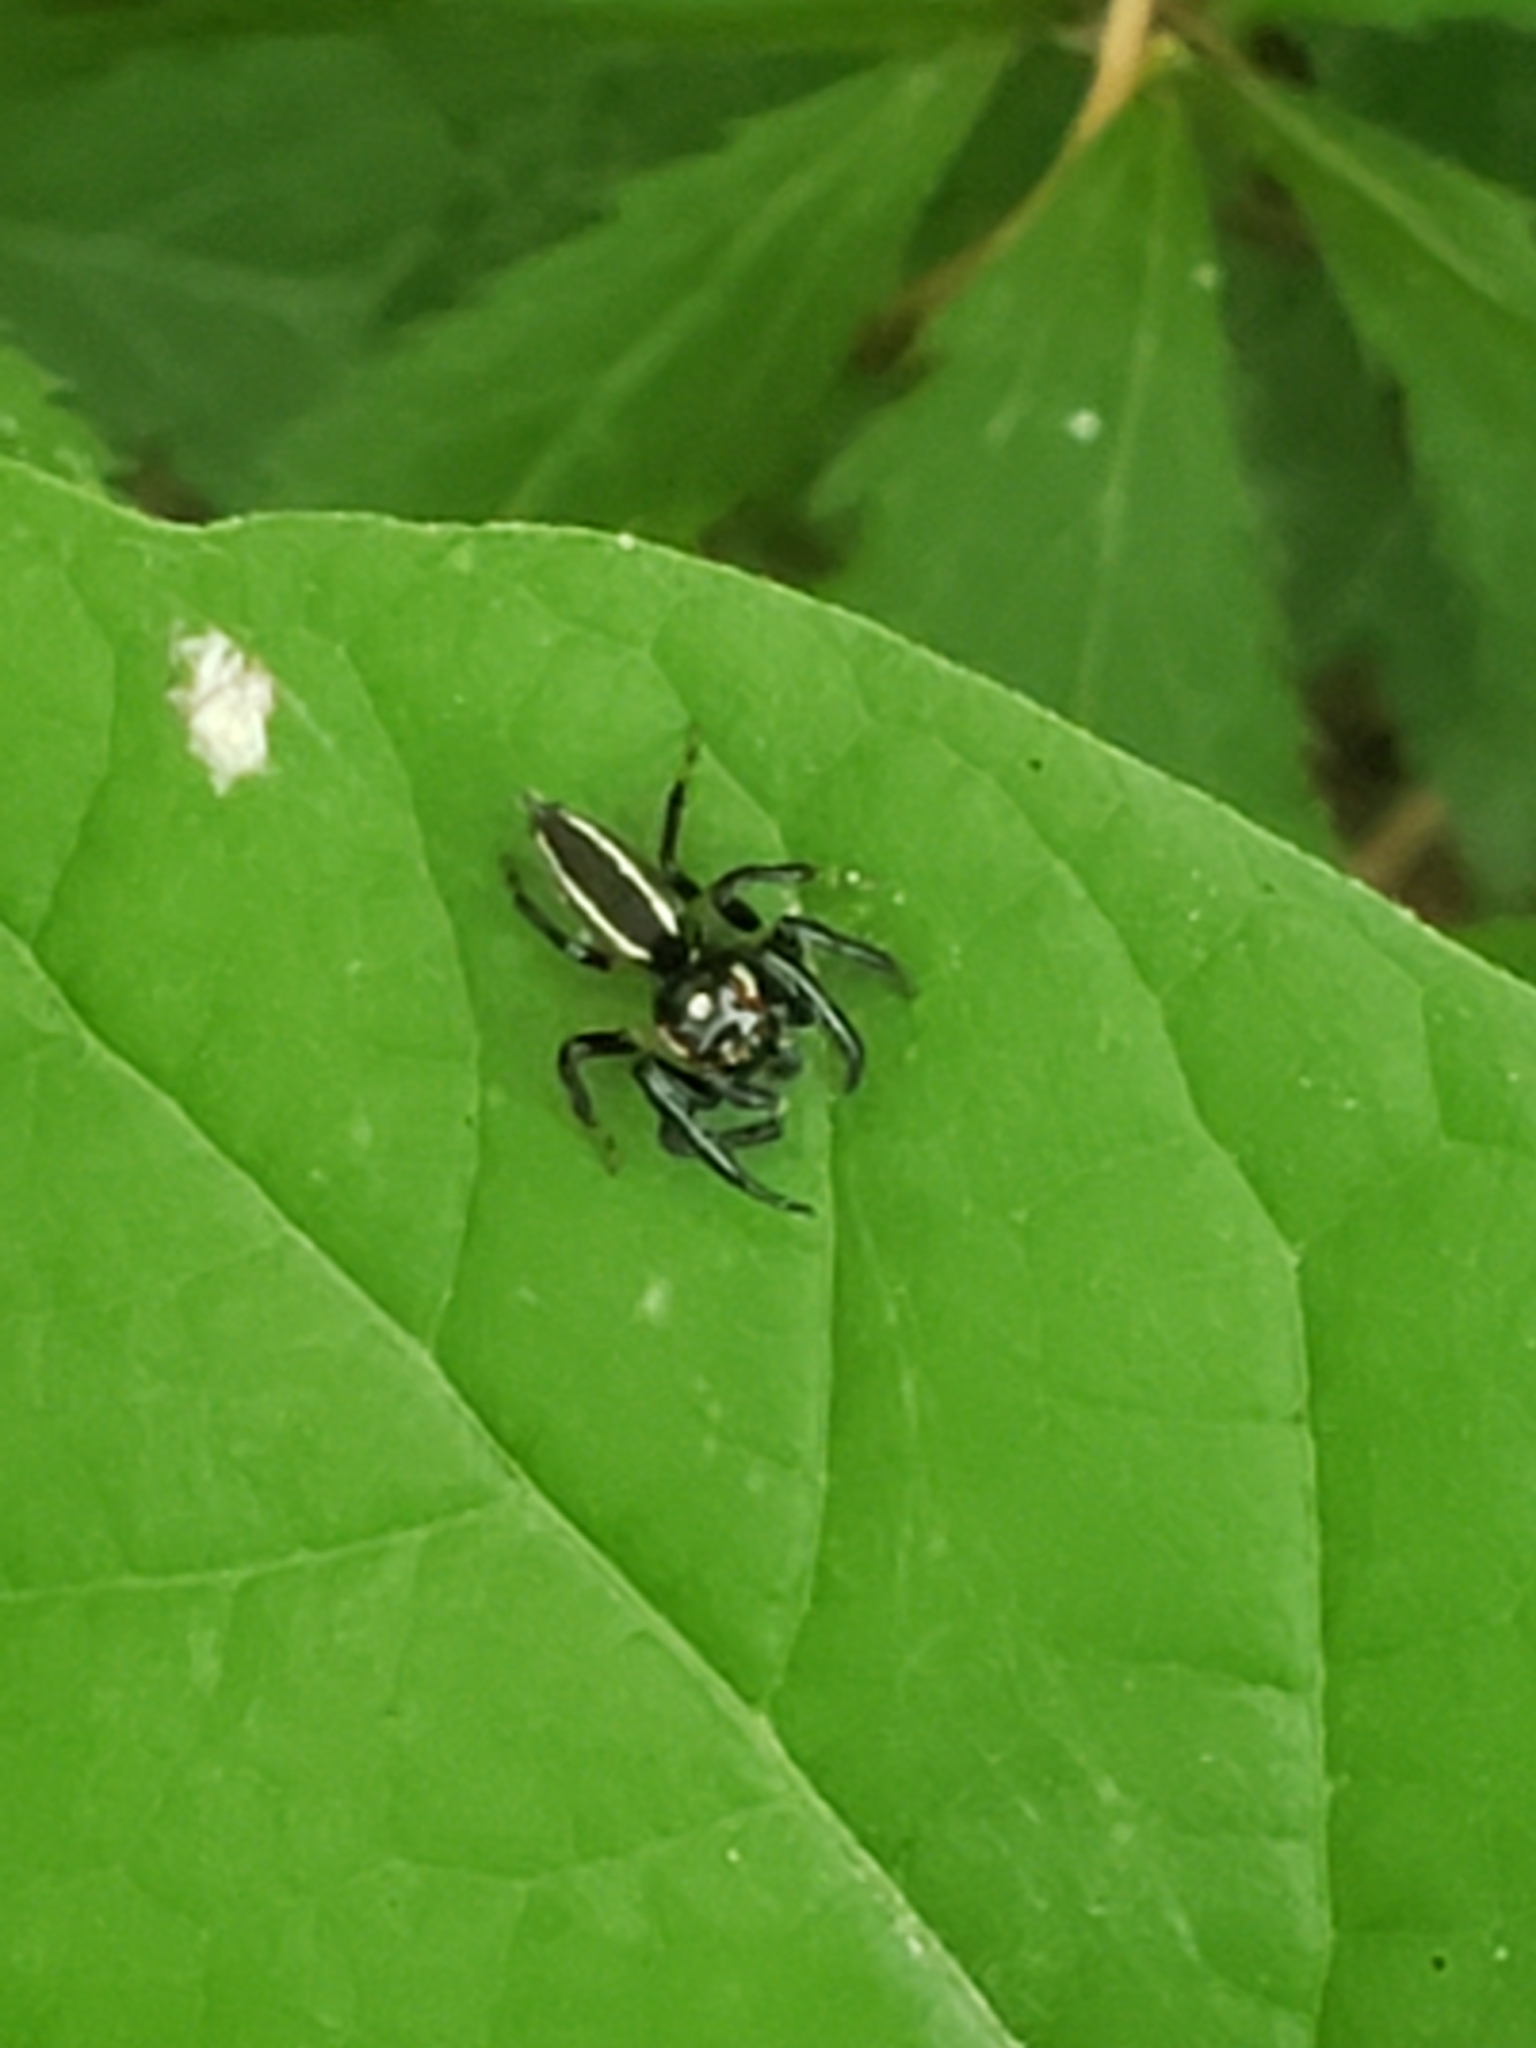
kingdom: Animalia
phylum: Arthropoda
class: Arachnida
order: Araneae
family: Salticidae
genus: Colonus
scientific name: Colonus sylvanus
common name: Jumping spiders
